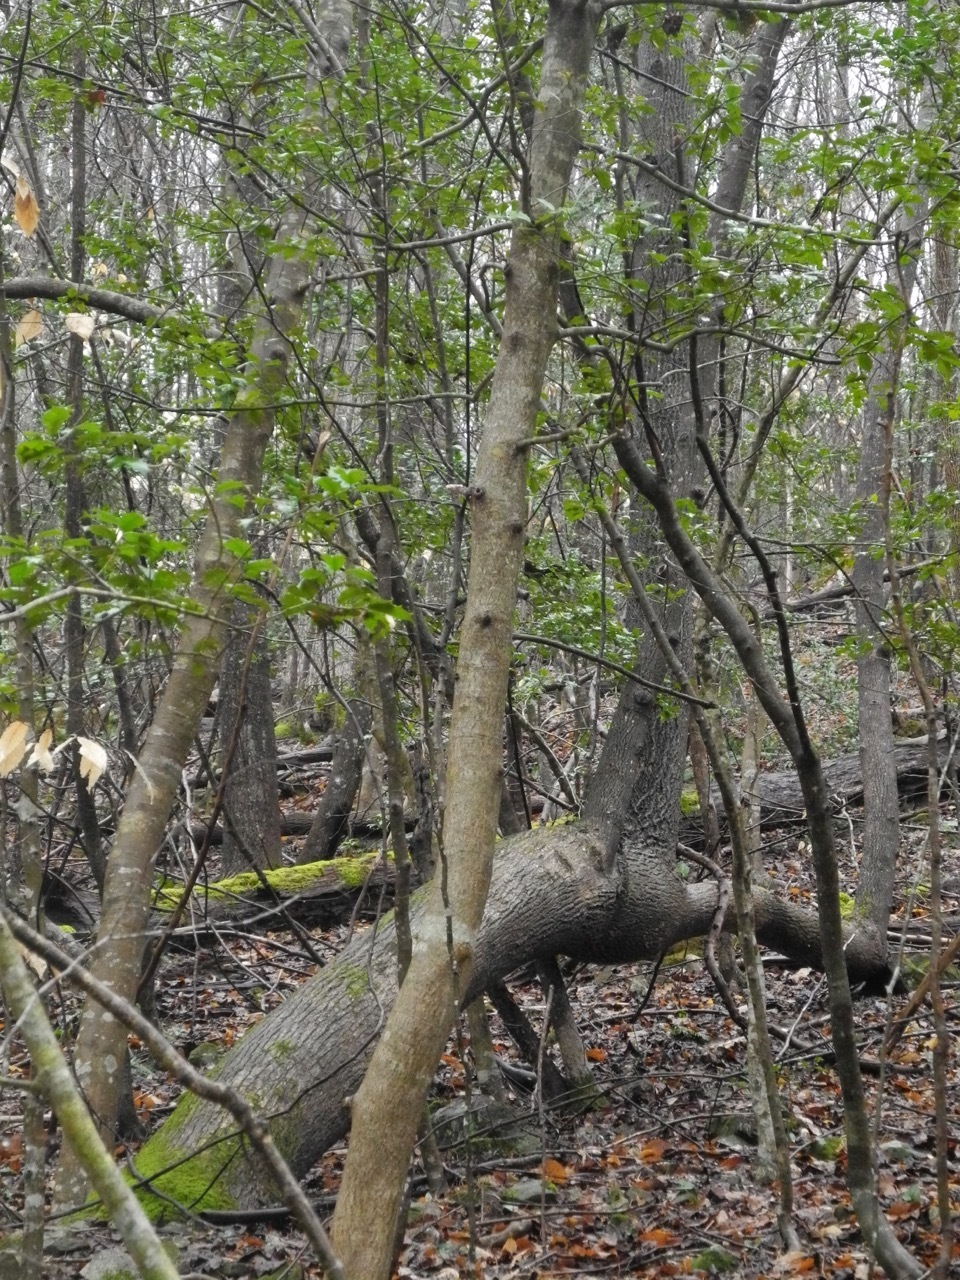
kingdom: Plantae
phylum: Tracheophyta
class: Magnoliopsida
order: Magnoliales
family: Magnoliaceae
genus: Liriodendron
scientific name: Liriodendron tulipifera
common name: Tulip tree
